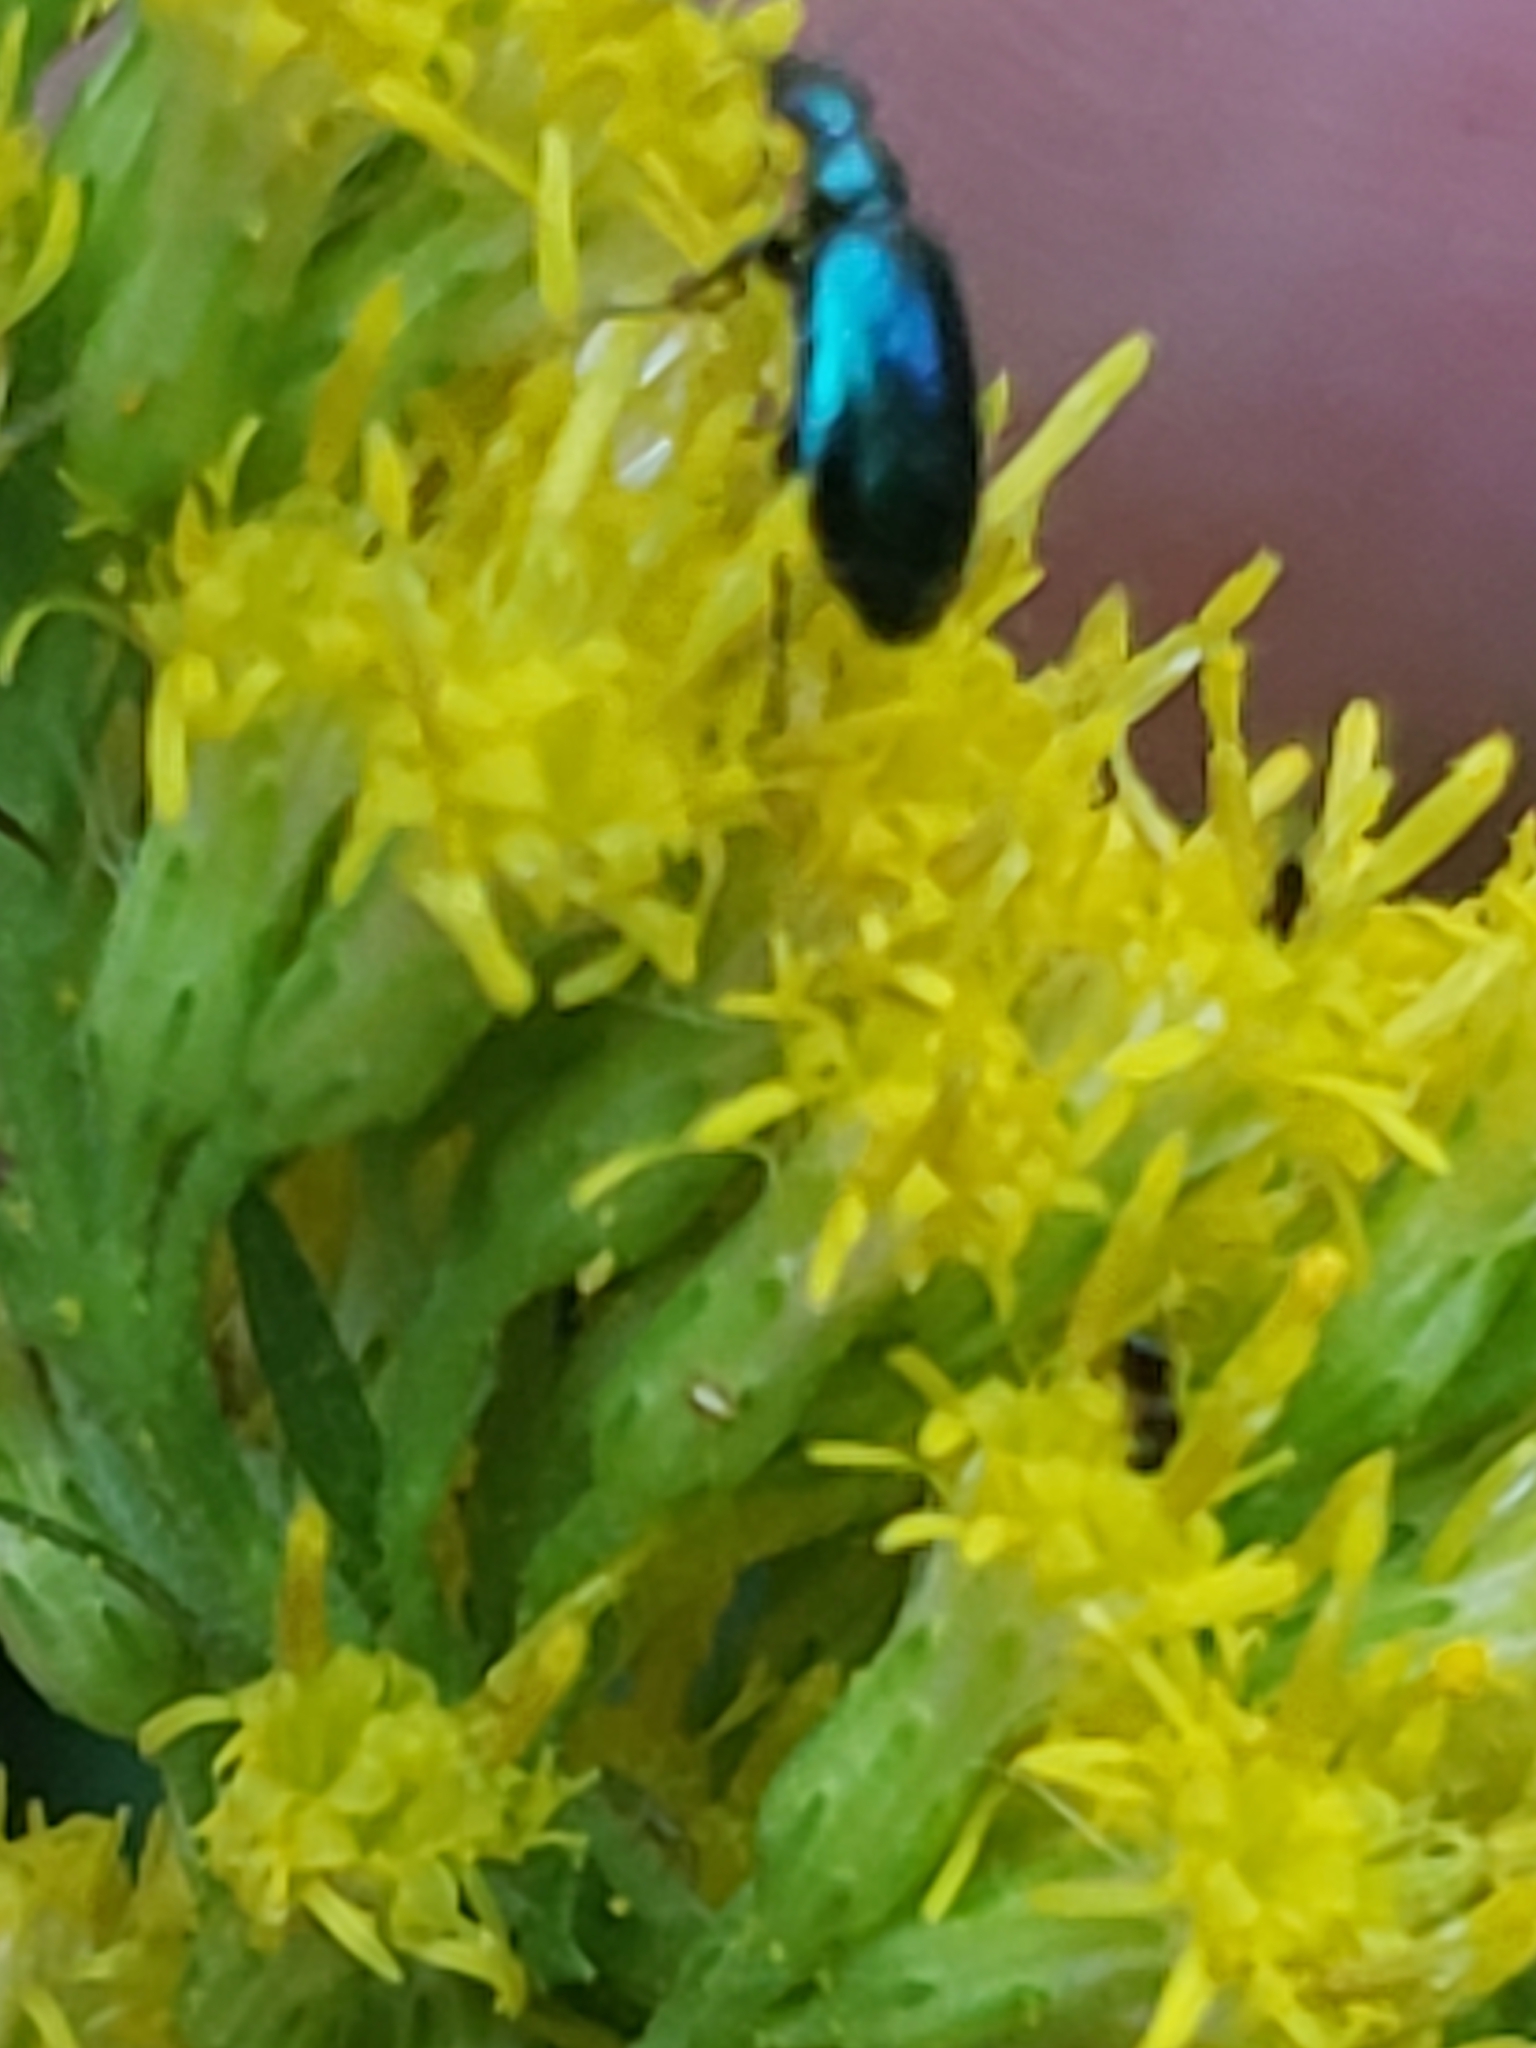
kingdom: Animalia
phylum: Arthropoda
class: Insecta
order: Coleoptera
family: Carabidae
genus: Lebia
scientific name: Lebia viridis
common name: Flower lebia beetle
